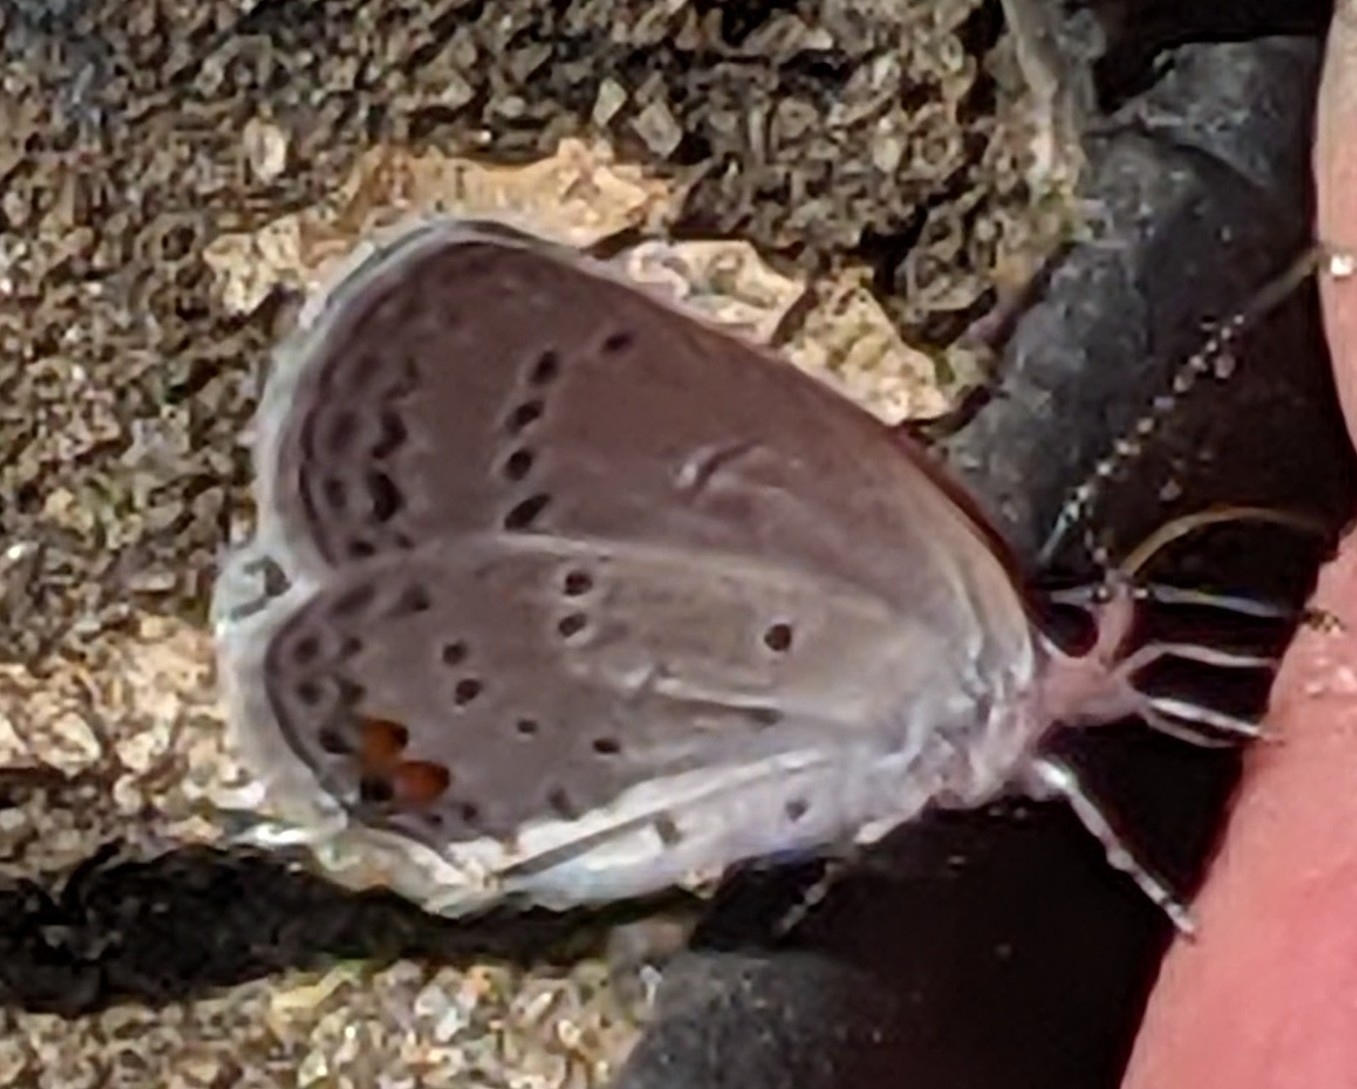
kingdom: Animalia
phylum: Arthropoda
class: Insecta
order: Lepidoptera
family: Lycaenidae
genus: Elkalyce
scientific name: Elkalyce comyntas
